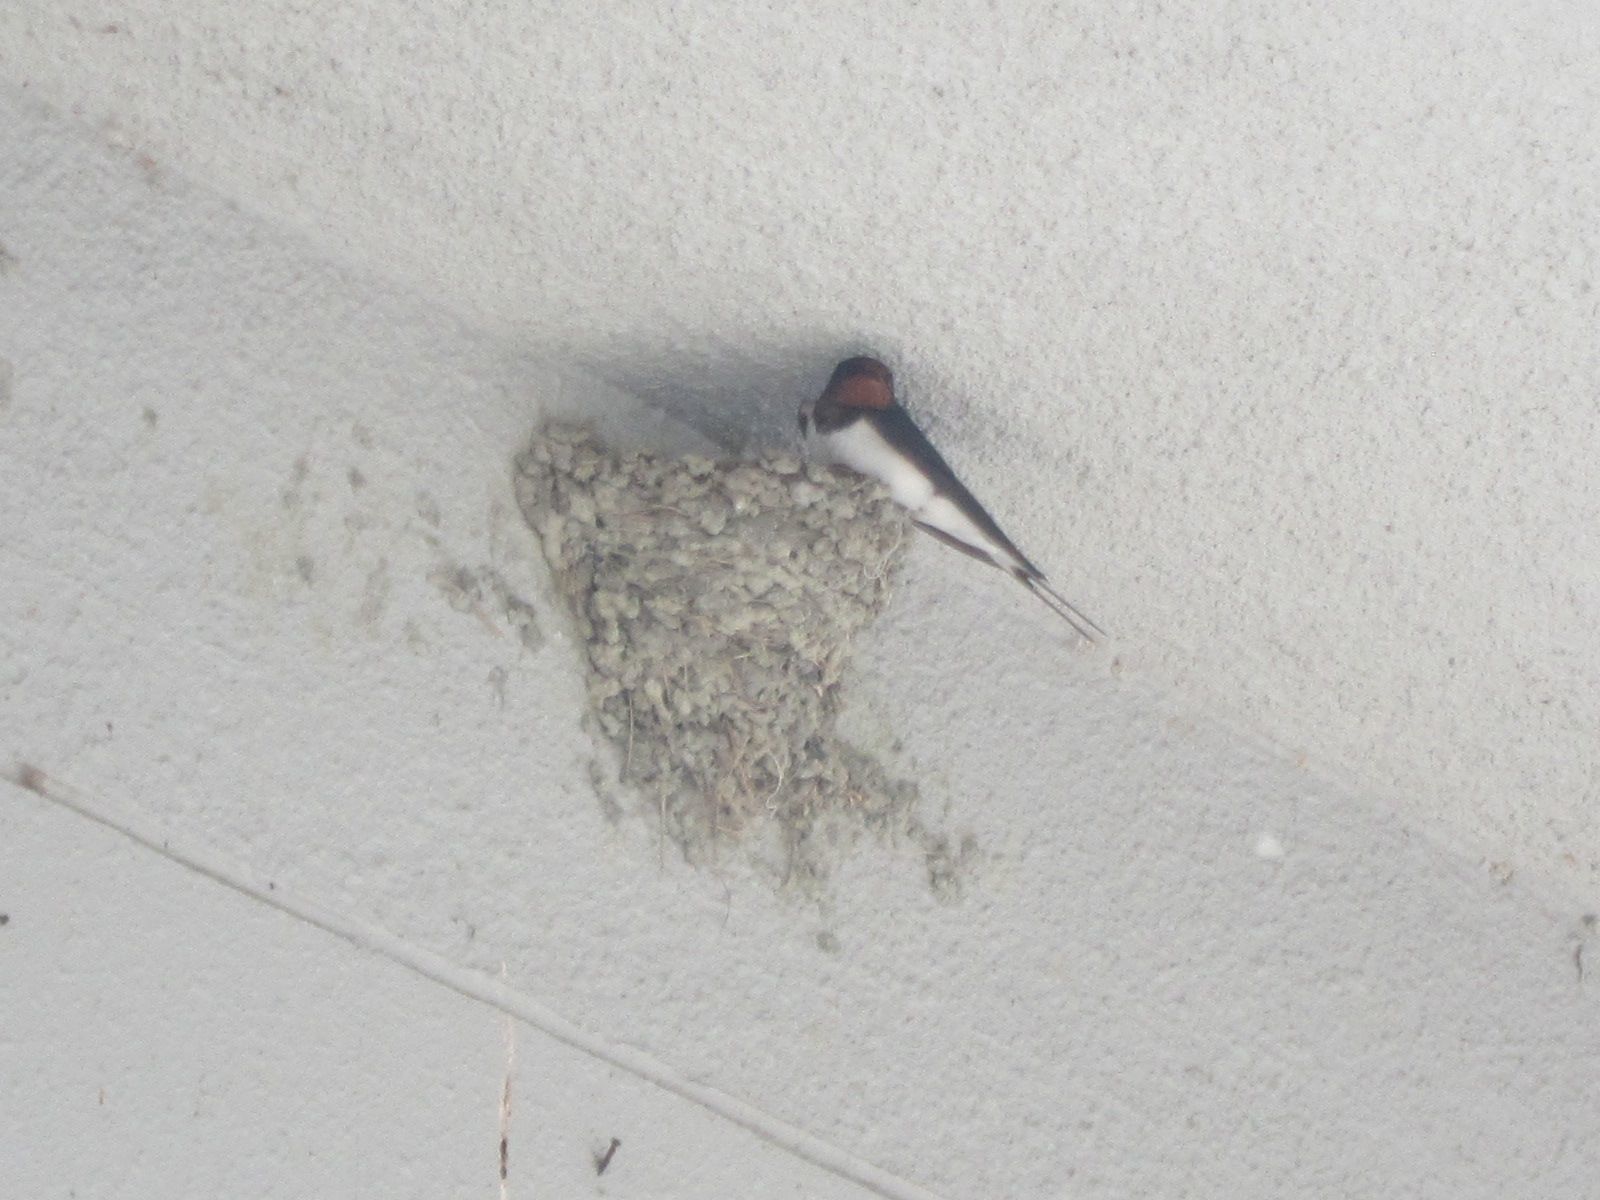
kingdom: Animalia
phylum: Chordata
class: Aves
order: Passeriformes
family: Hirundinidae
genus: Hirundo
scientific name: Hirundo rustica
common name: Barn swallow
